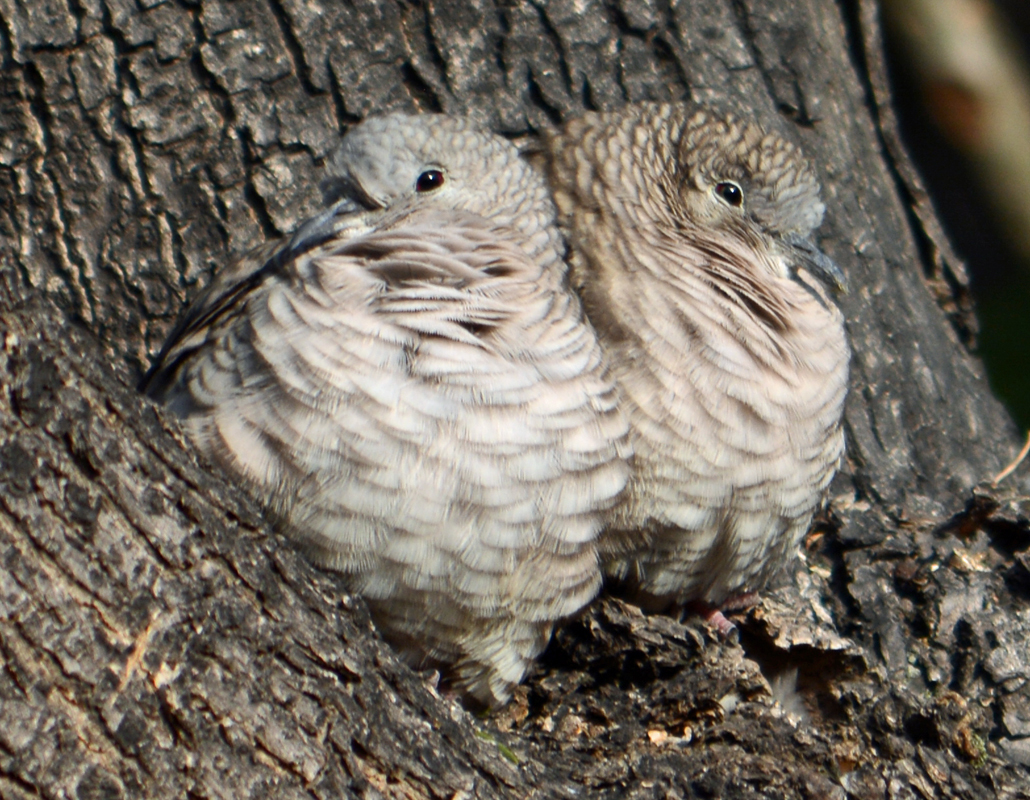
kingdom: Animalia
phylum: Chordata
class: Aves
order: Columbiformes
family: Columbidae
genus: Columbina
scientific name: Columbina inca
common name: Inca dove
